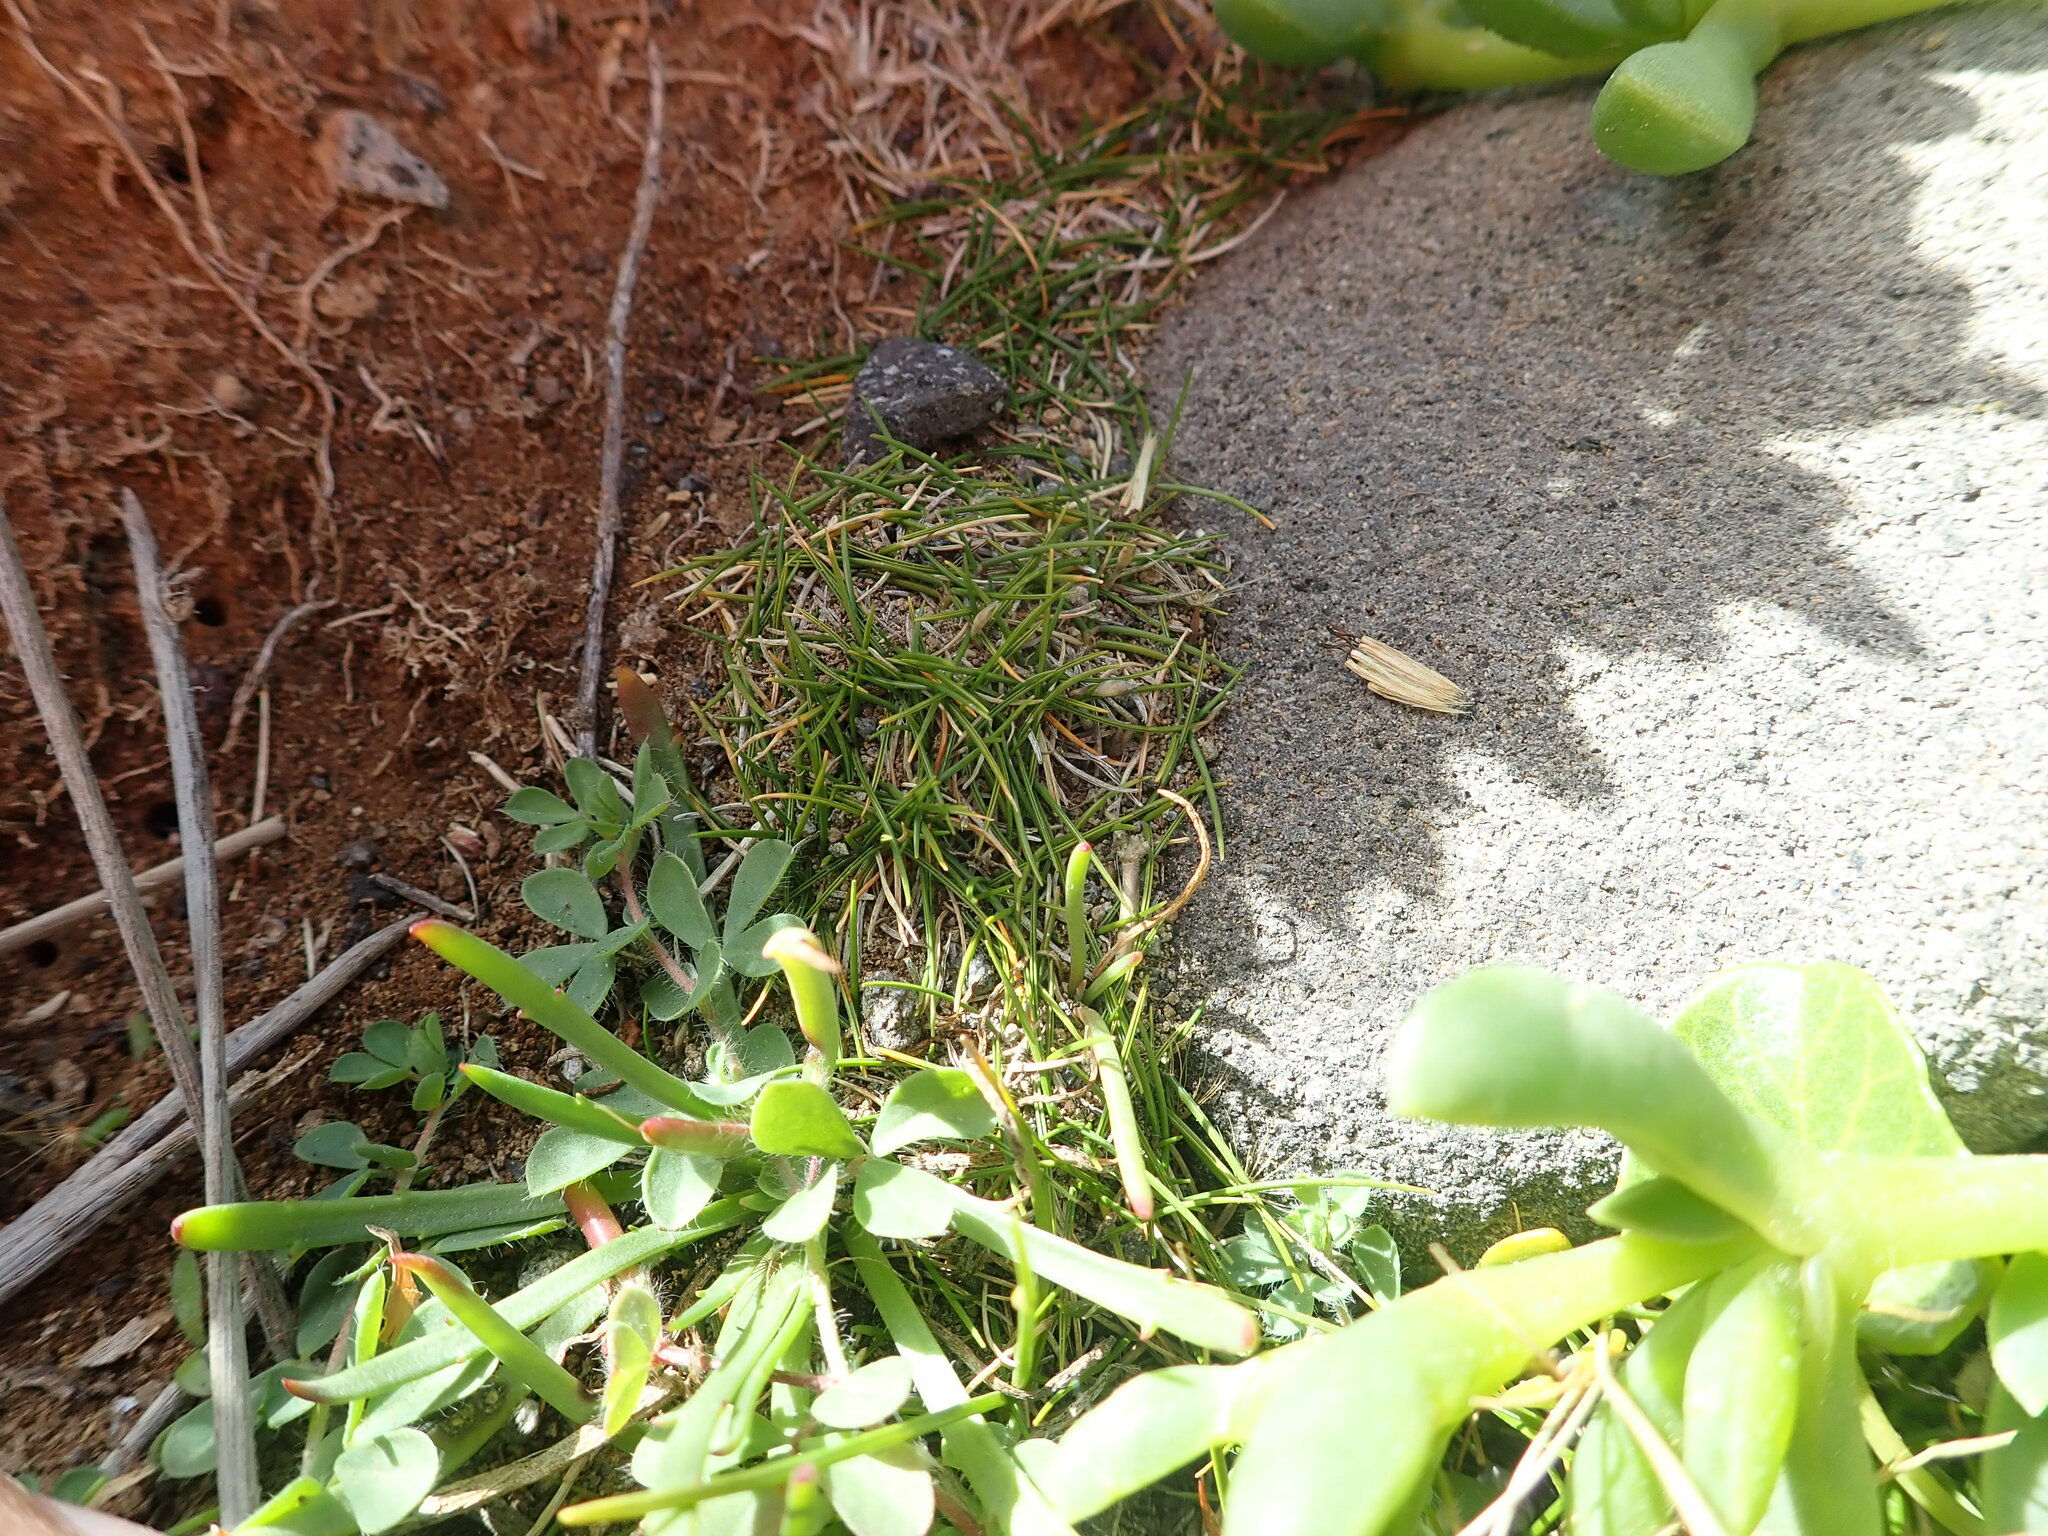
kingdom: Plantae
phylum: Tracheophyta
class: Liliopsida
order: Poales
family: Poaceae
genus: Zoysia
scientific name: Zoysia minima
